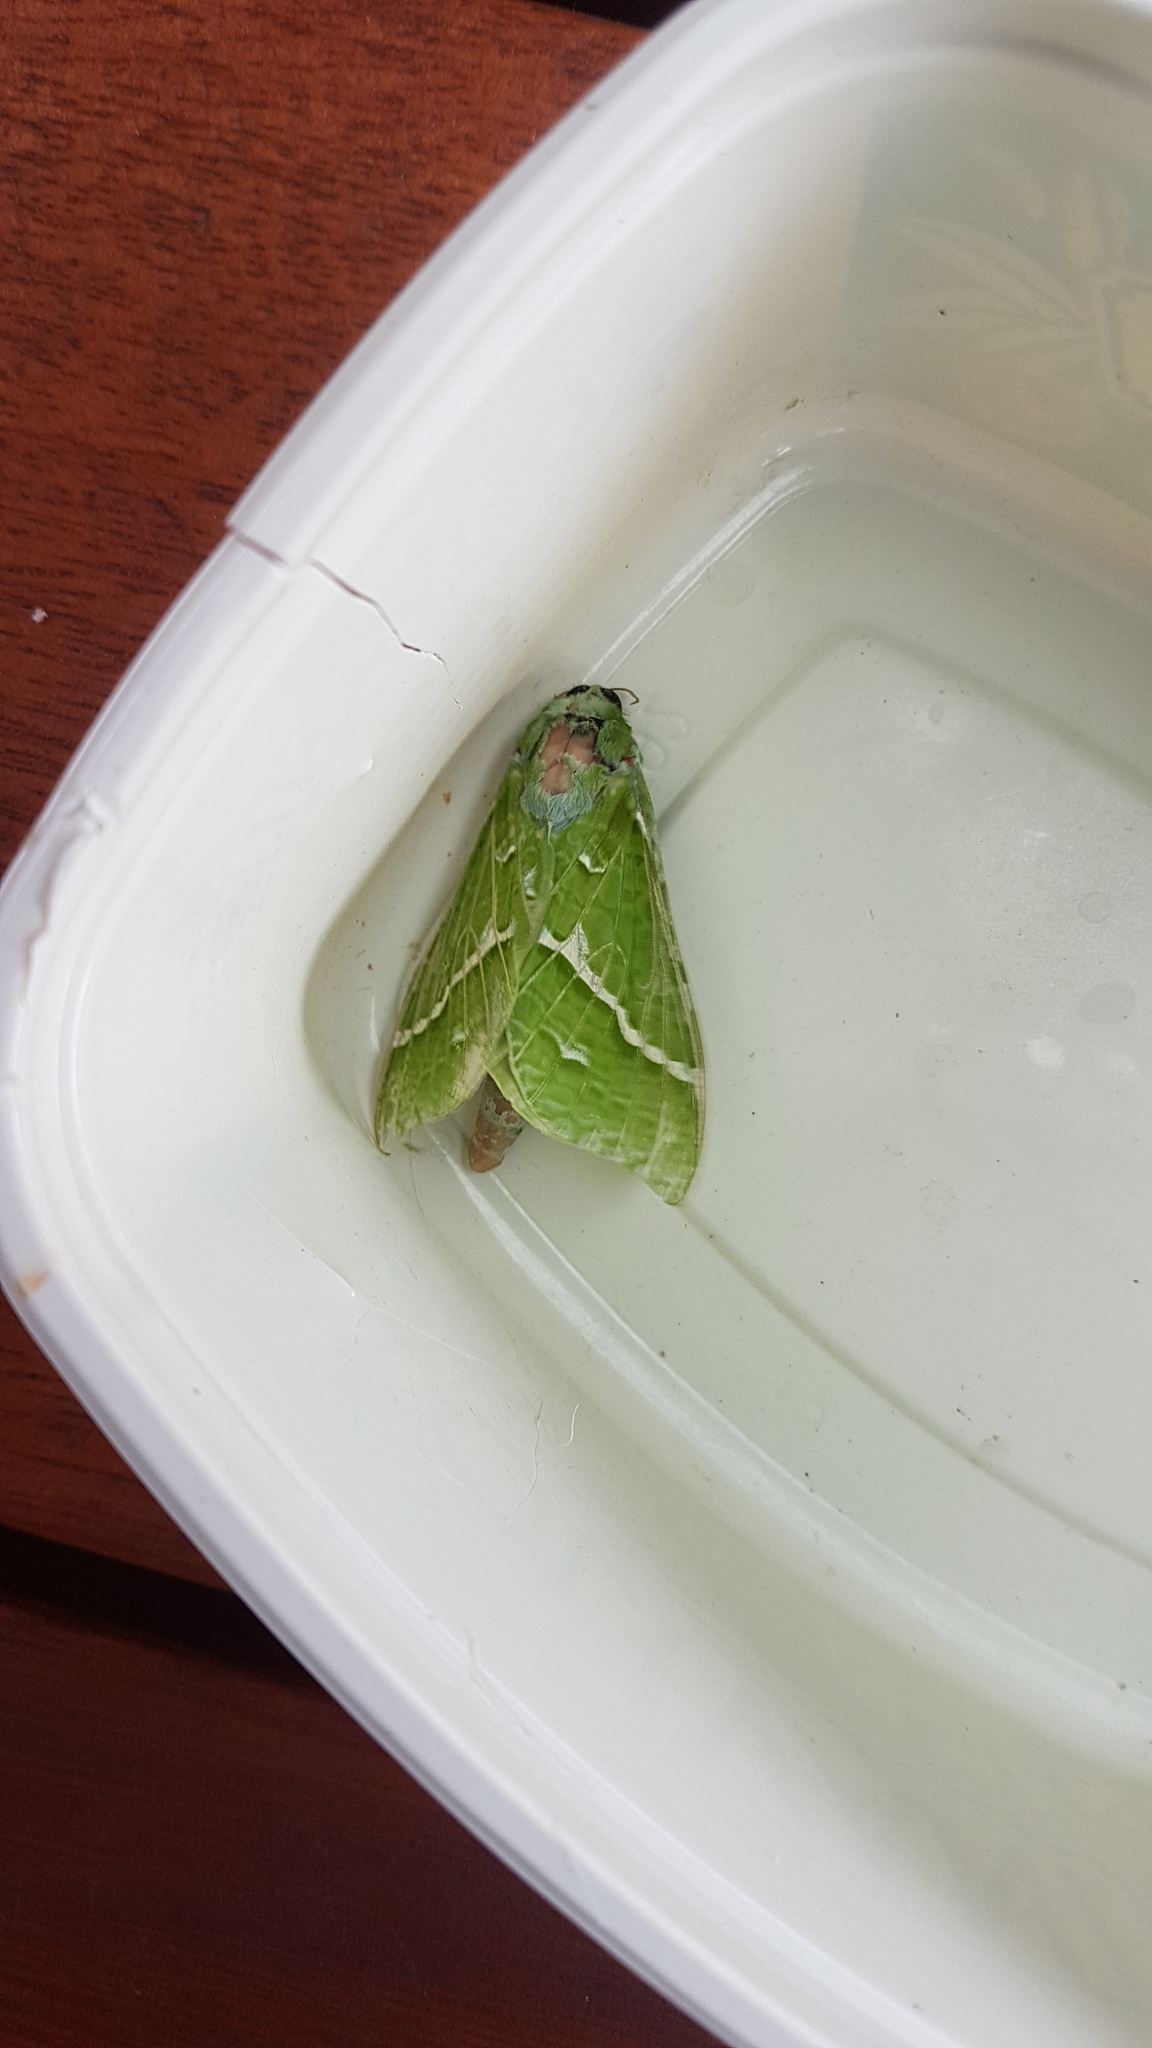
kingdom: Animalia
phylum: Arthropoda
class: Insecta
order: Lepidoptera
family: Hepialidae
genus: Aenetus
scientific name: Aenetus virescens
